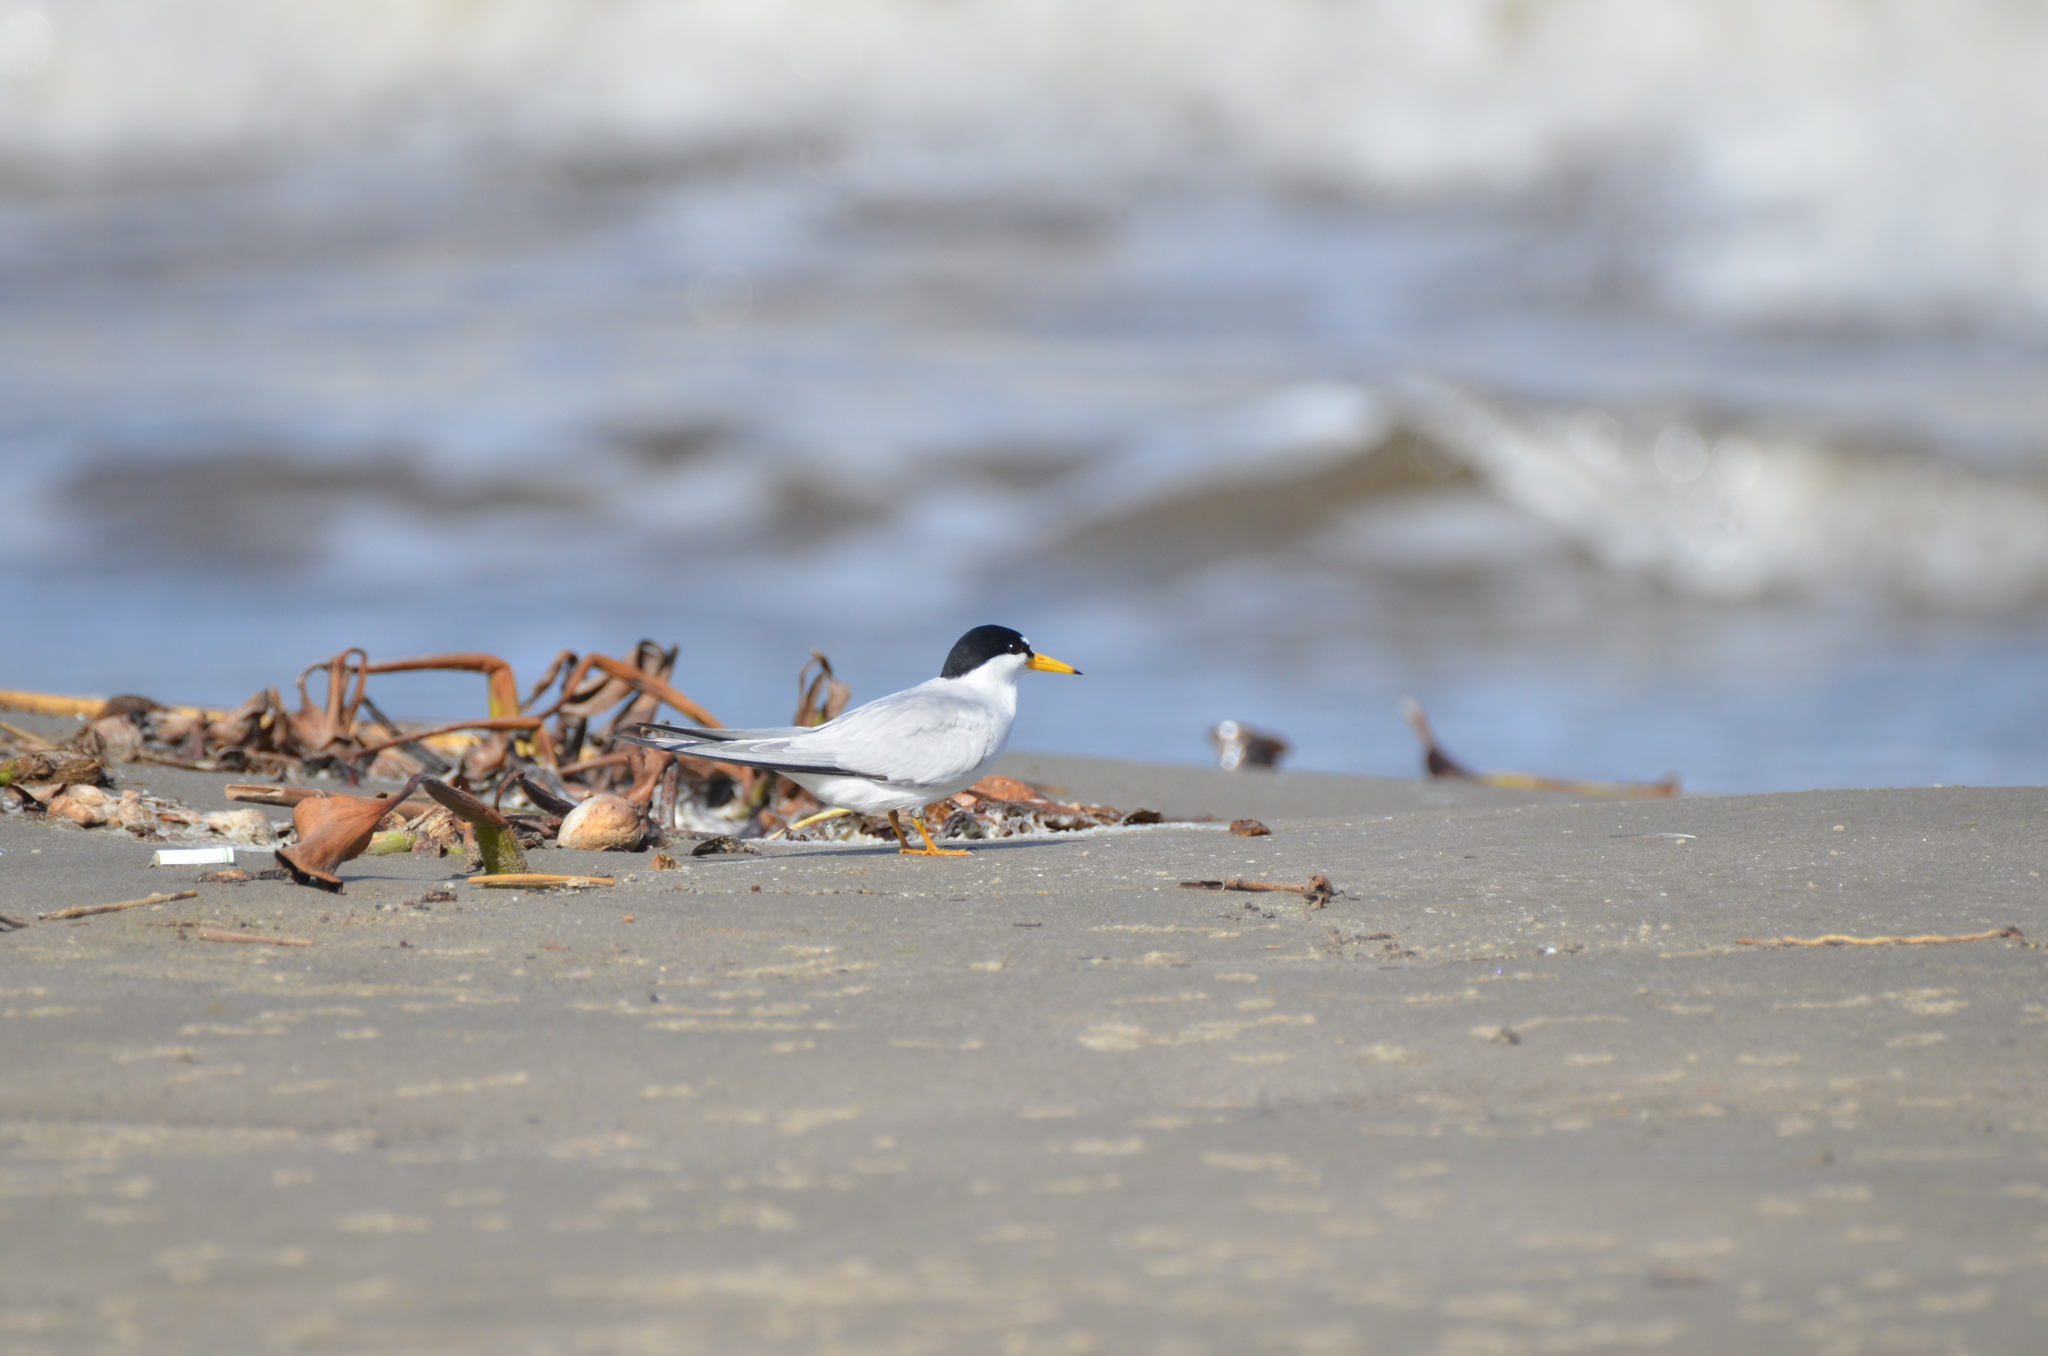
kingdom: Animalia
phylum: Chordata
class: Aves
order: Charadriiformes
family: Laridae
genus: Sternula
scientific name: Sternula antillarum
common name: Least tern
